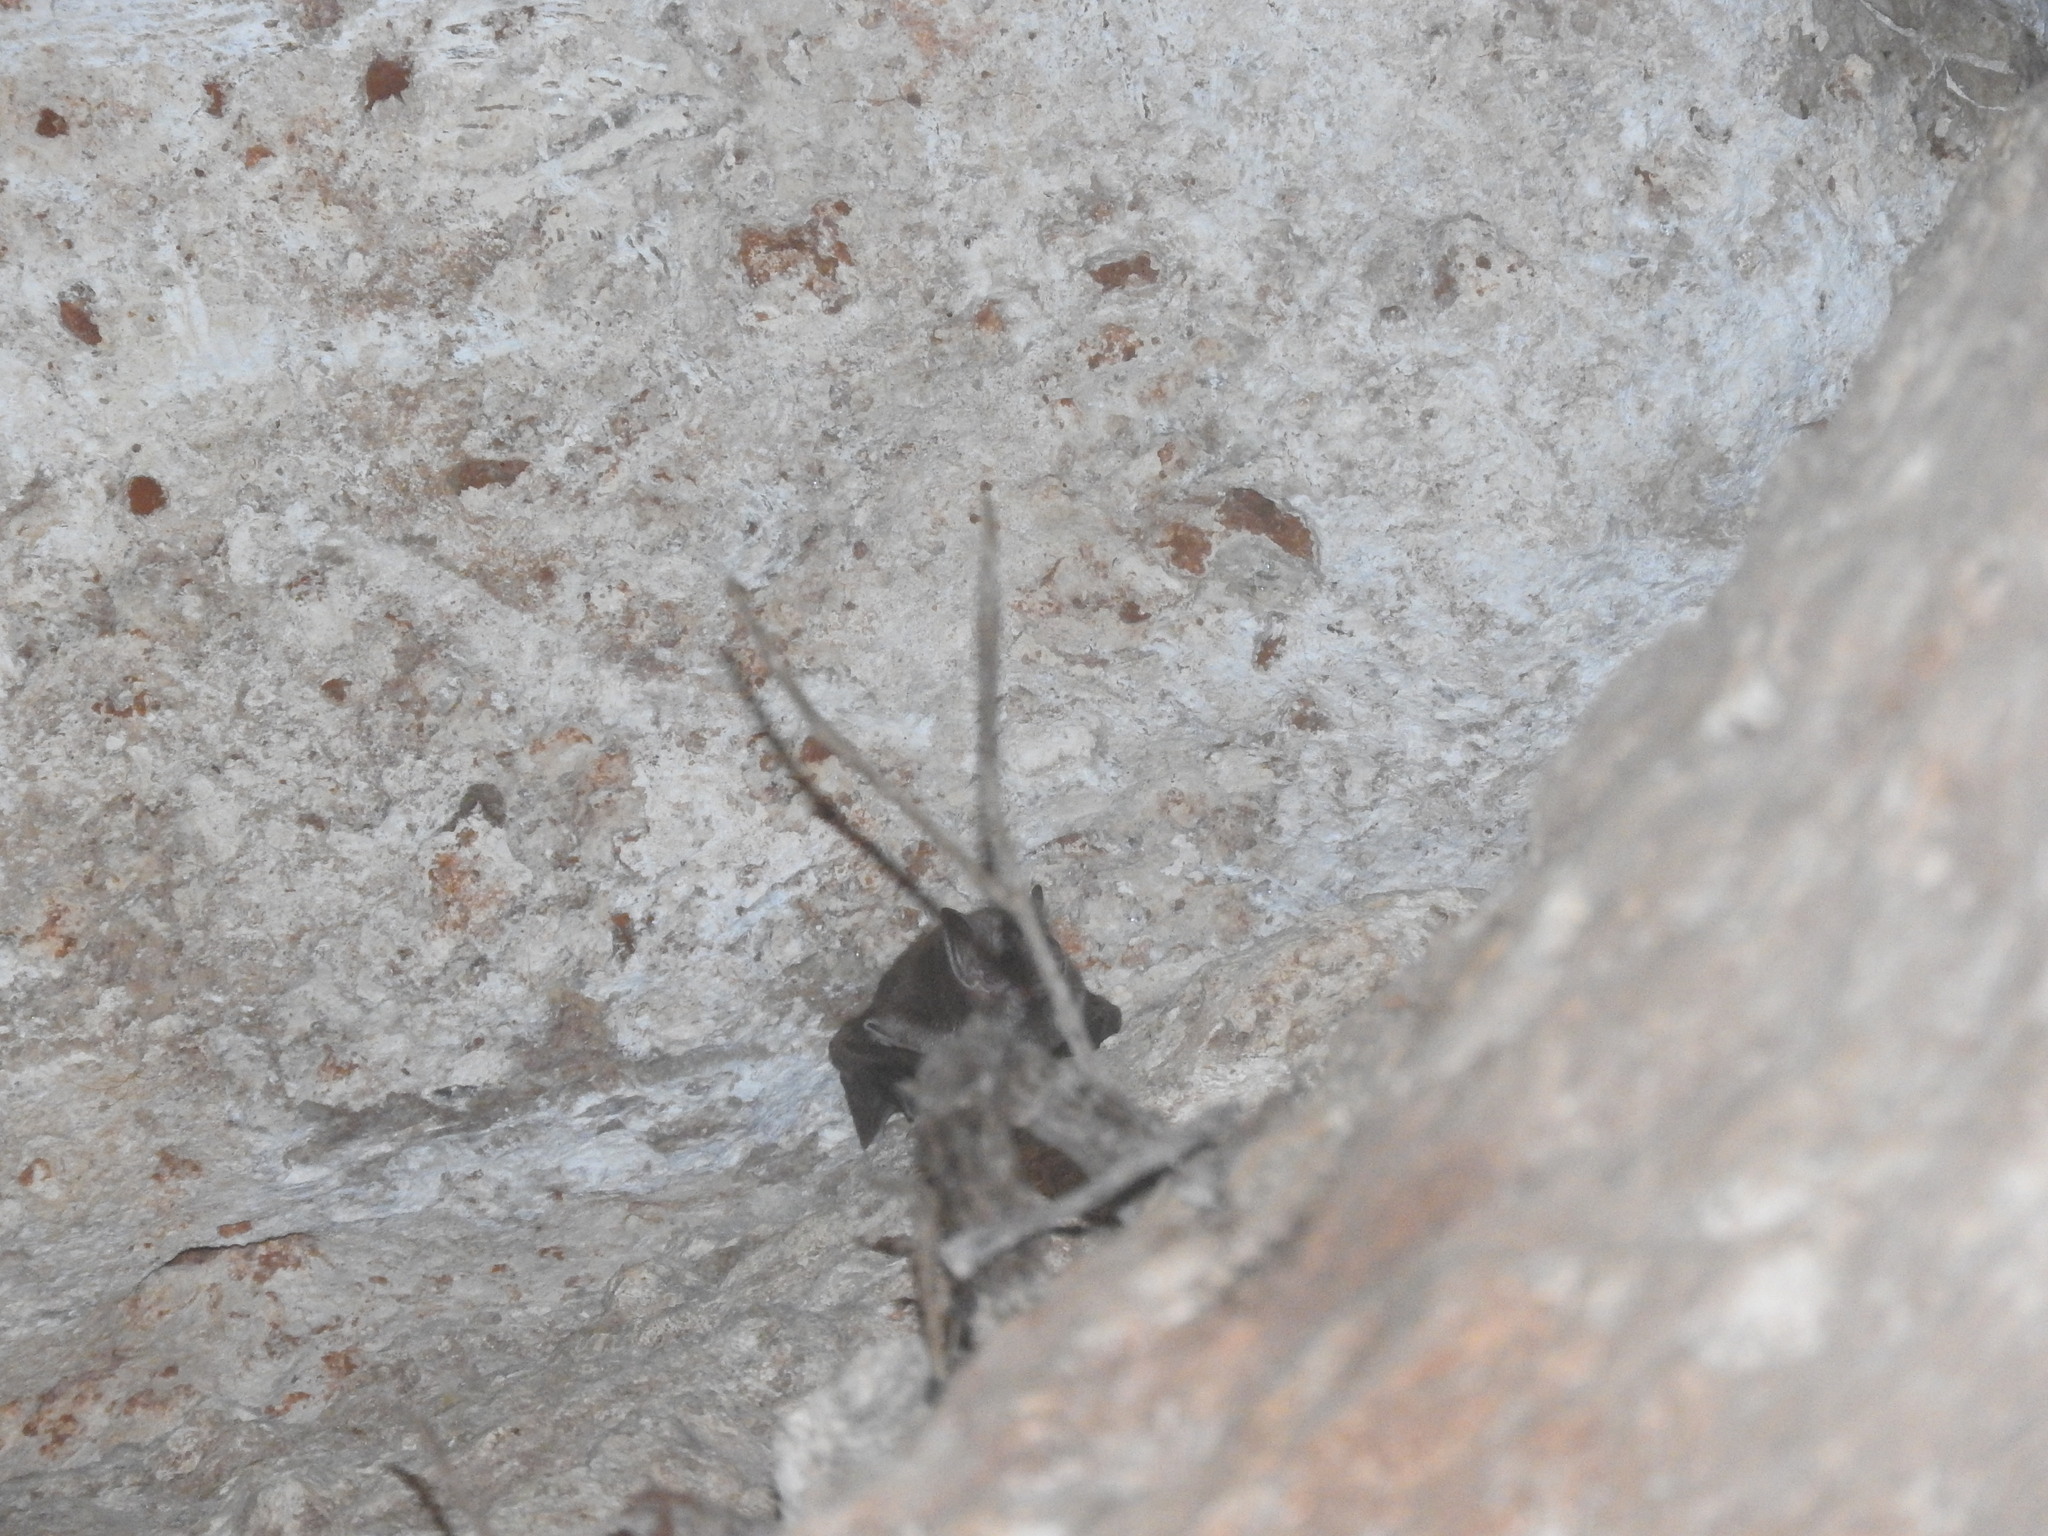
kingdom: Animalia
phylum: Chordata
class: Mammalia
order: Chiroptera
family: Phyllostomidae
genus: Desmodus
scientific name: Desmodus rotundus
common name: Common vampire bat
